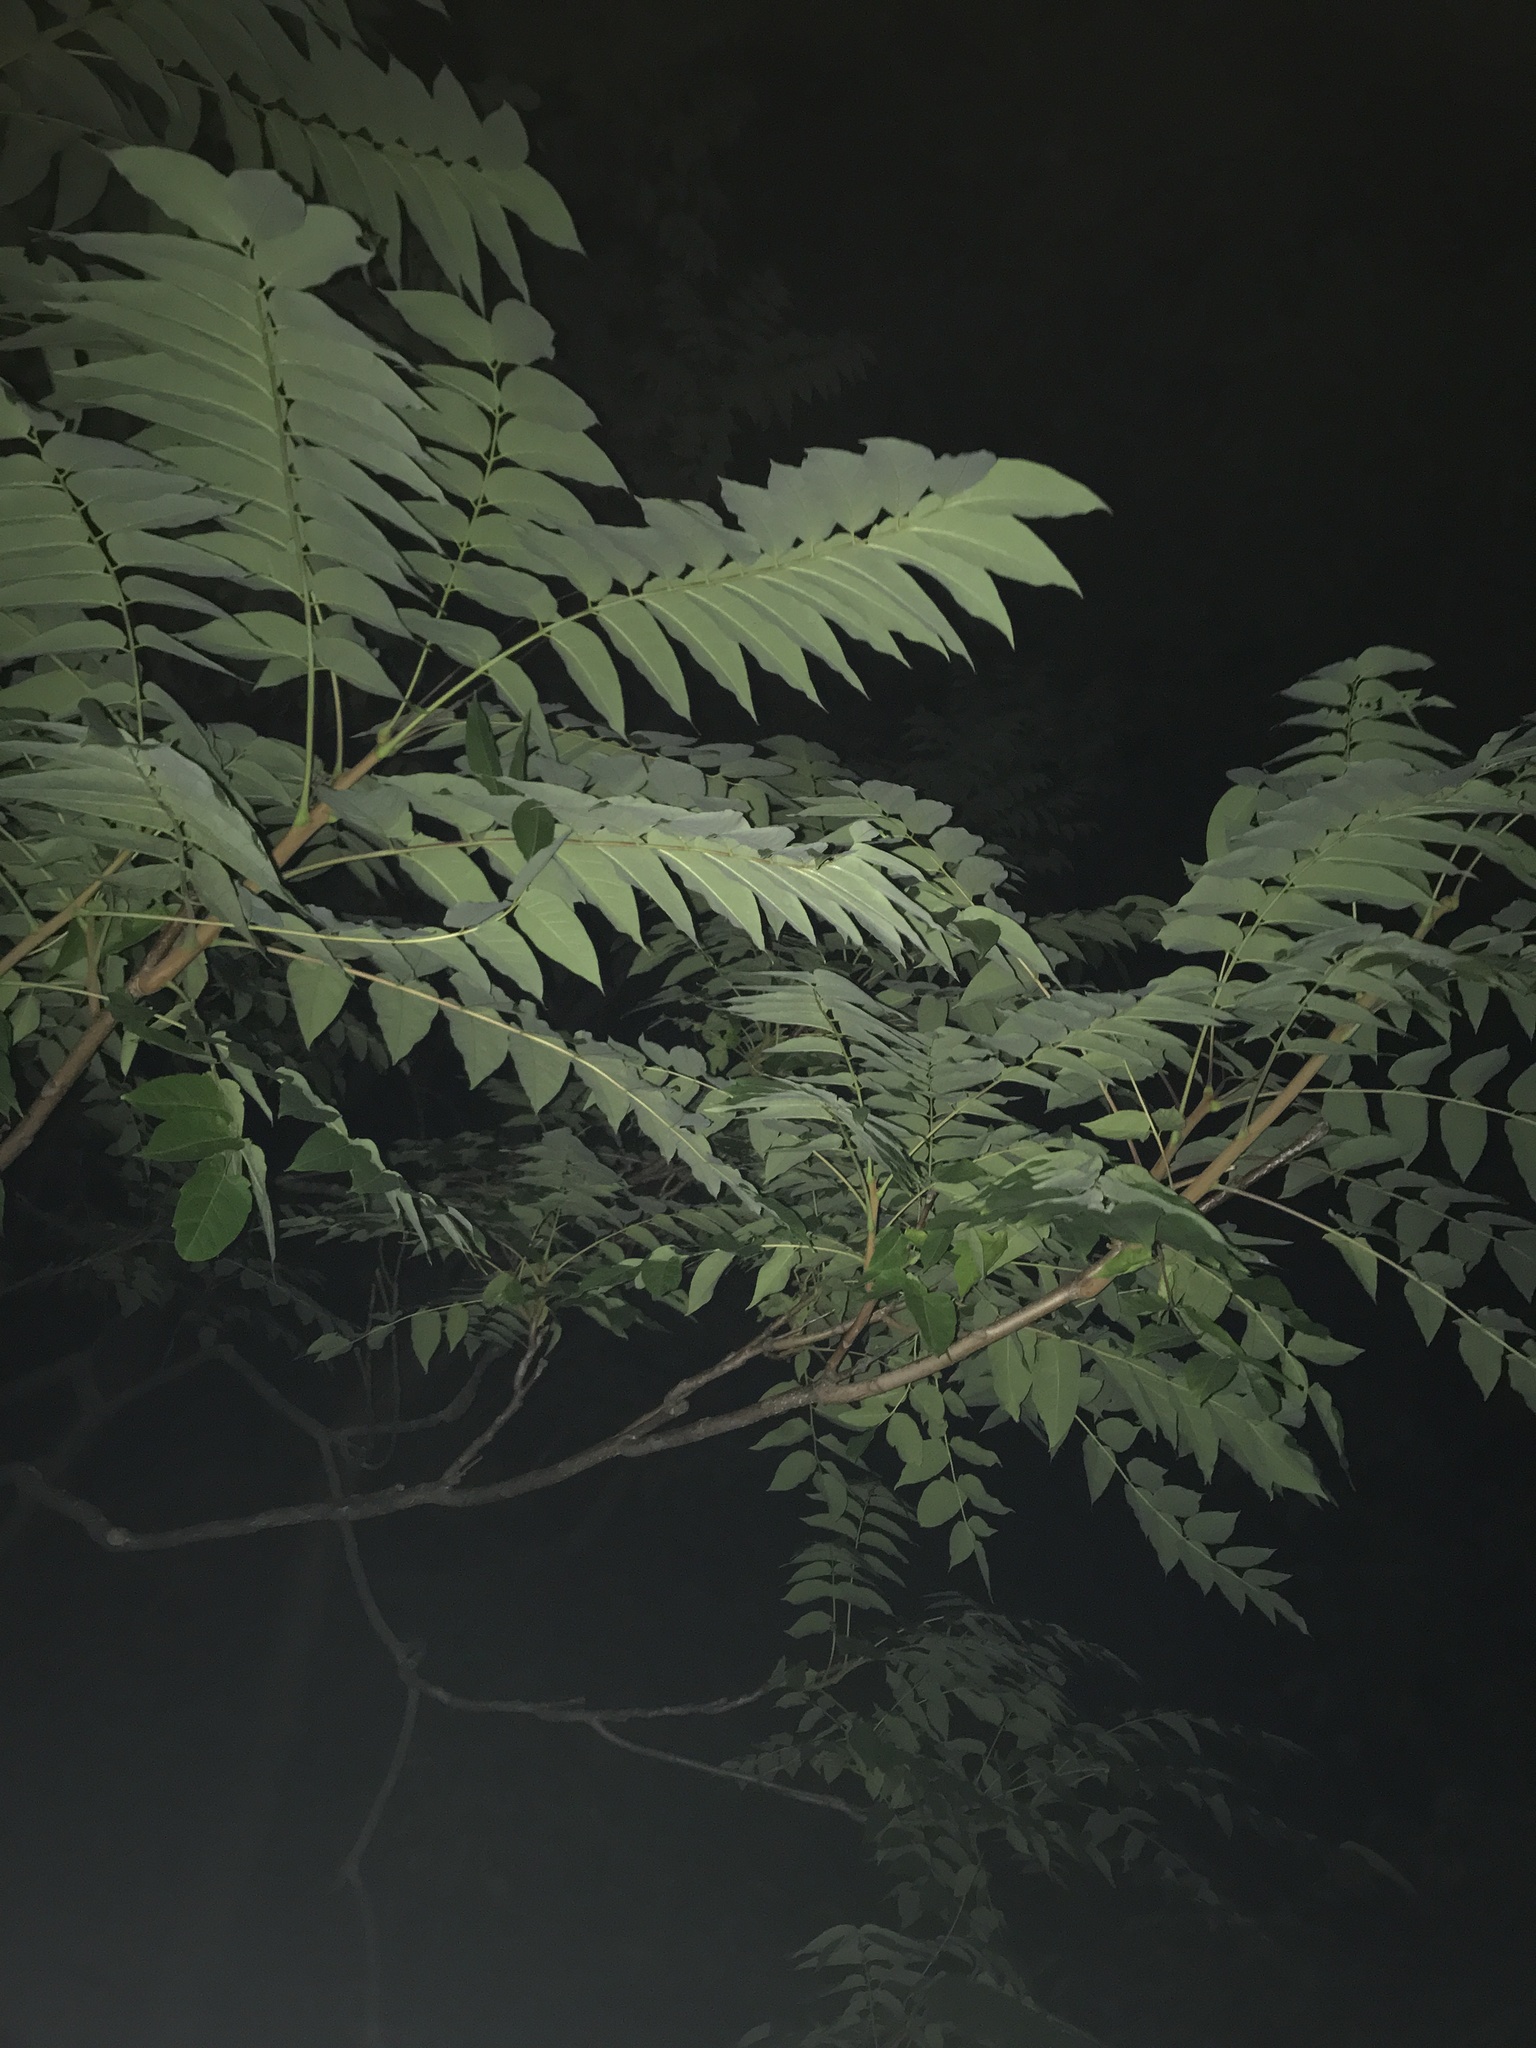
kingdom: Plantae
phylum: Tracheophyta
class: Magnoliopsida
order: Sapindales
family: Simaroubaceae
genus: Ailanthus
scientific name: Ailanthus altissima
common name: Tree-of-heaven
